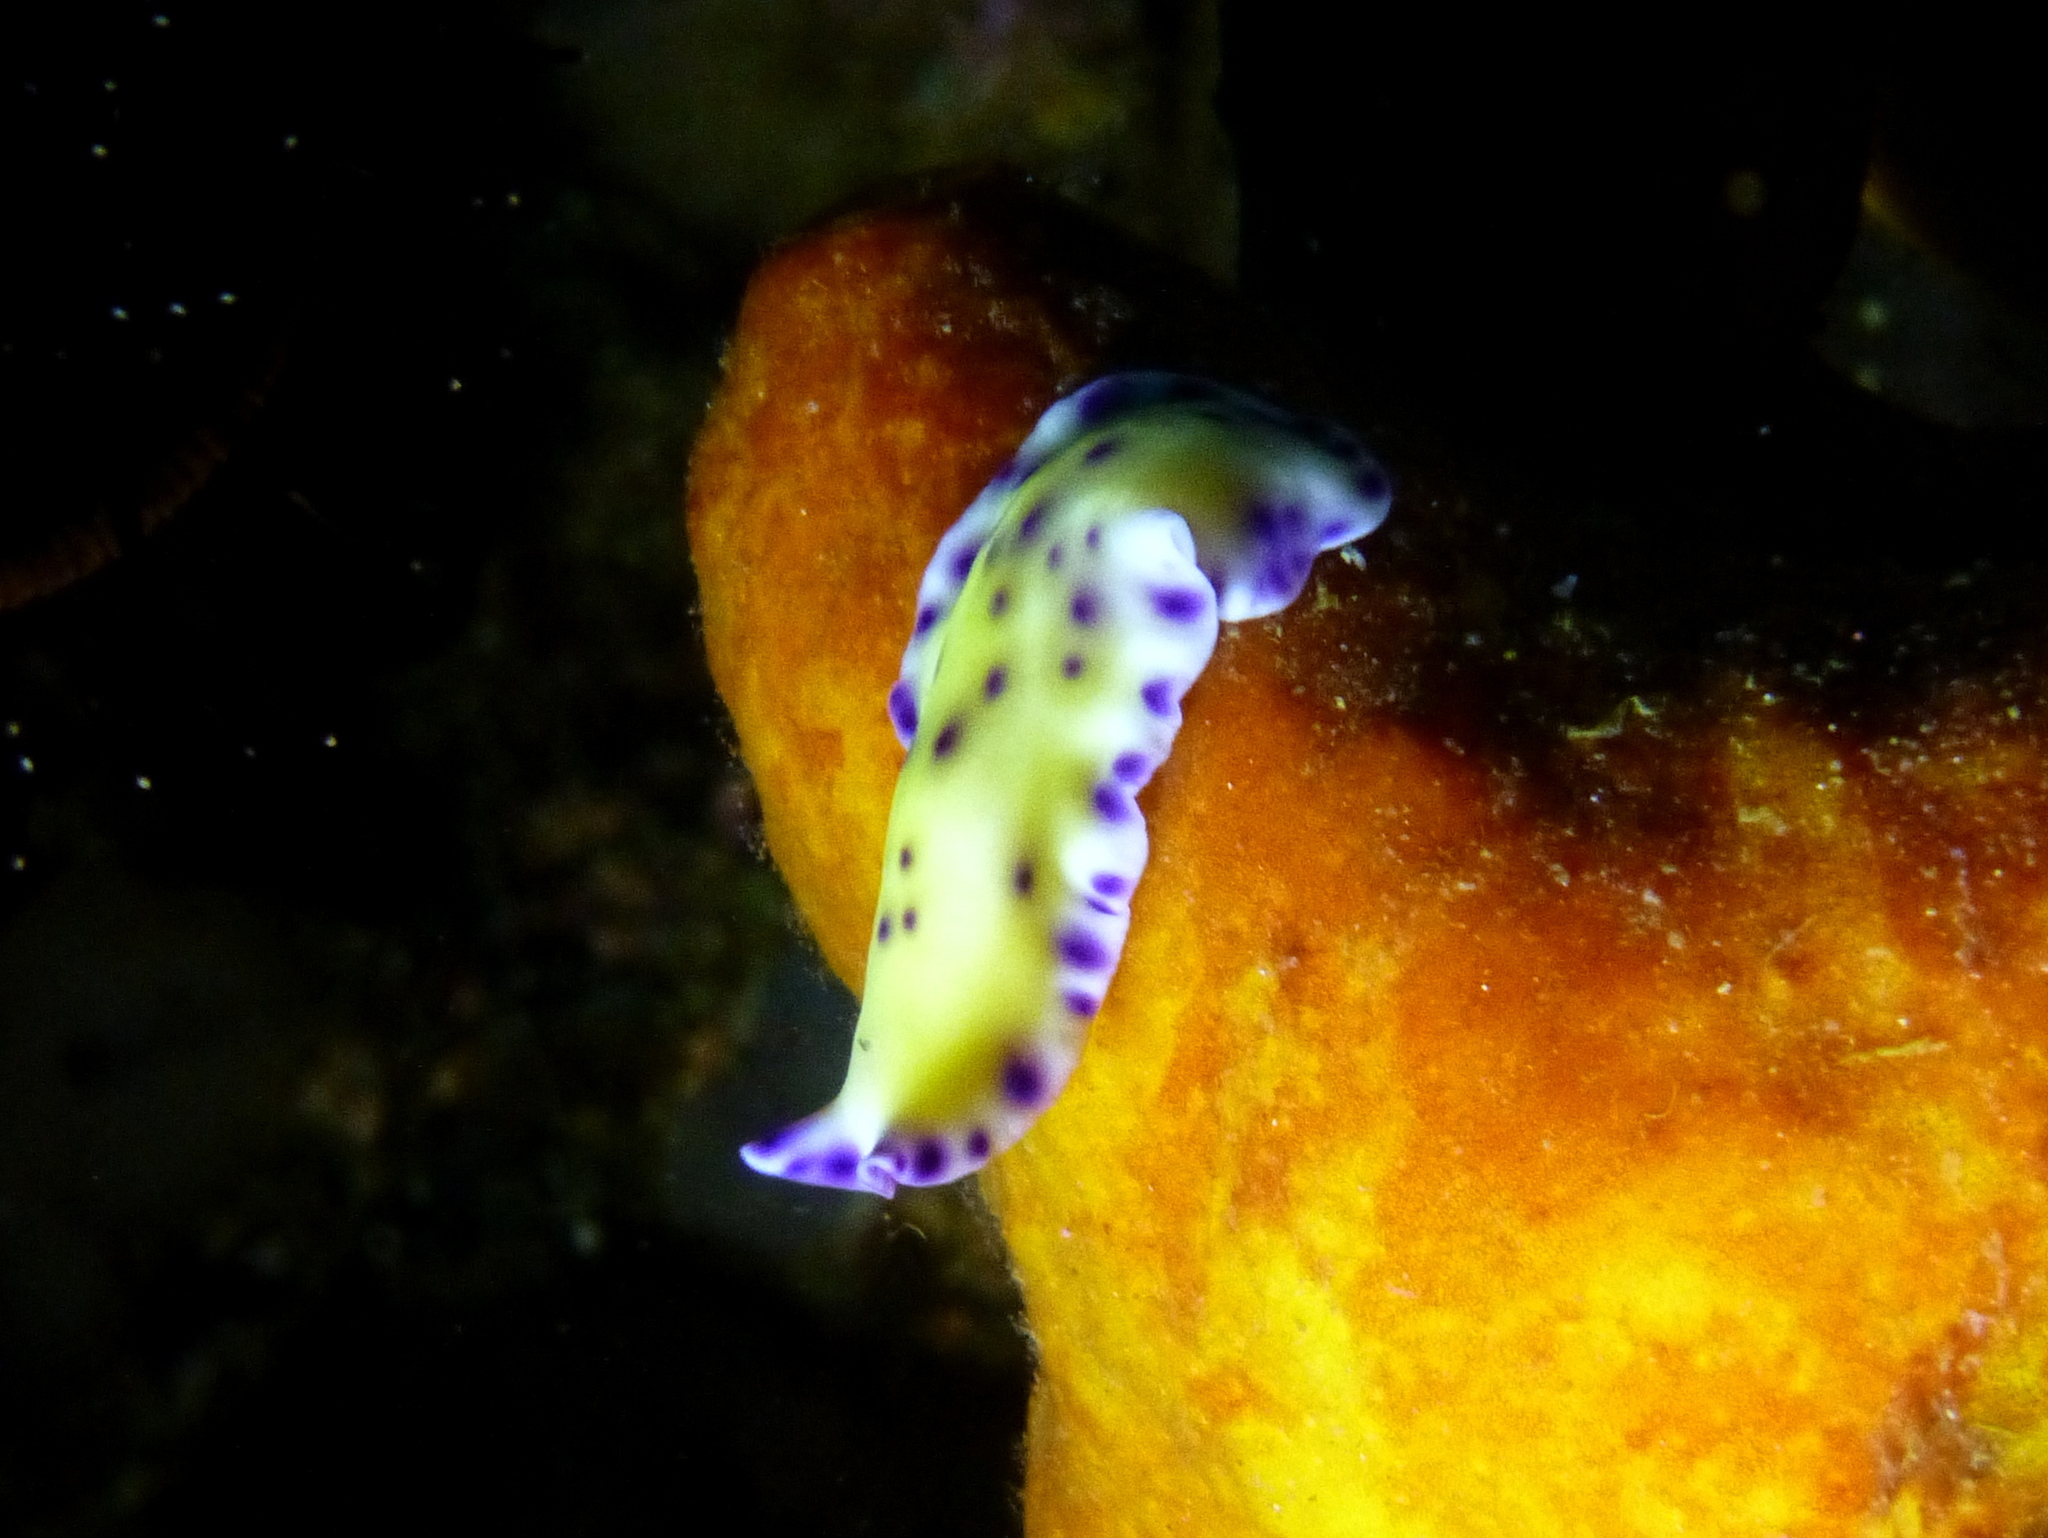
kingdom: Animalia
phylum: Platyhelminthes
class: Turbellaria
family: Pseudocerotidae
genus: Pseudoceros
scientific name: Pseudoceros laingensis
